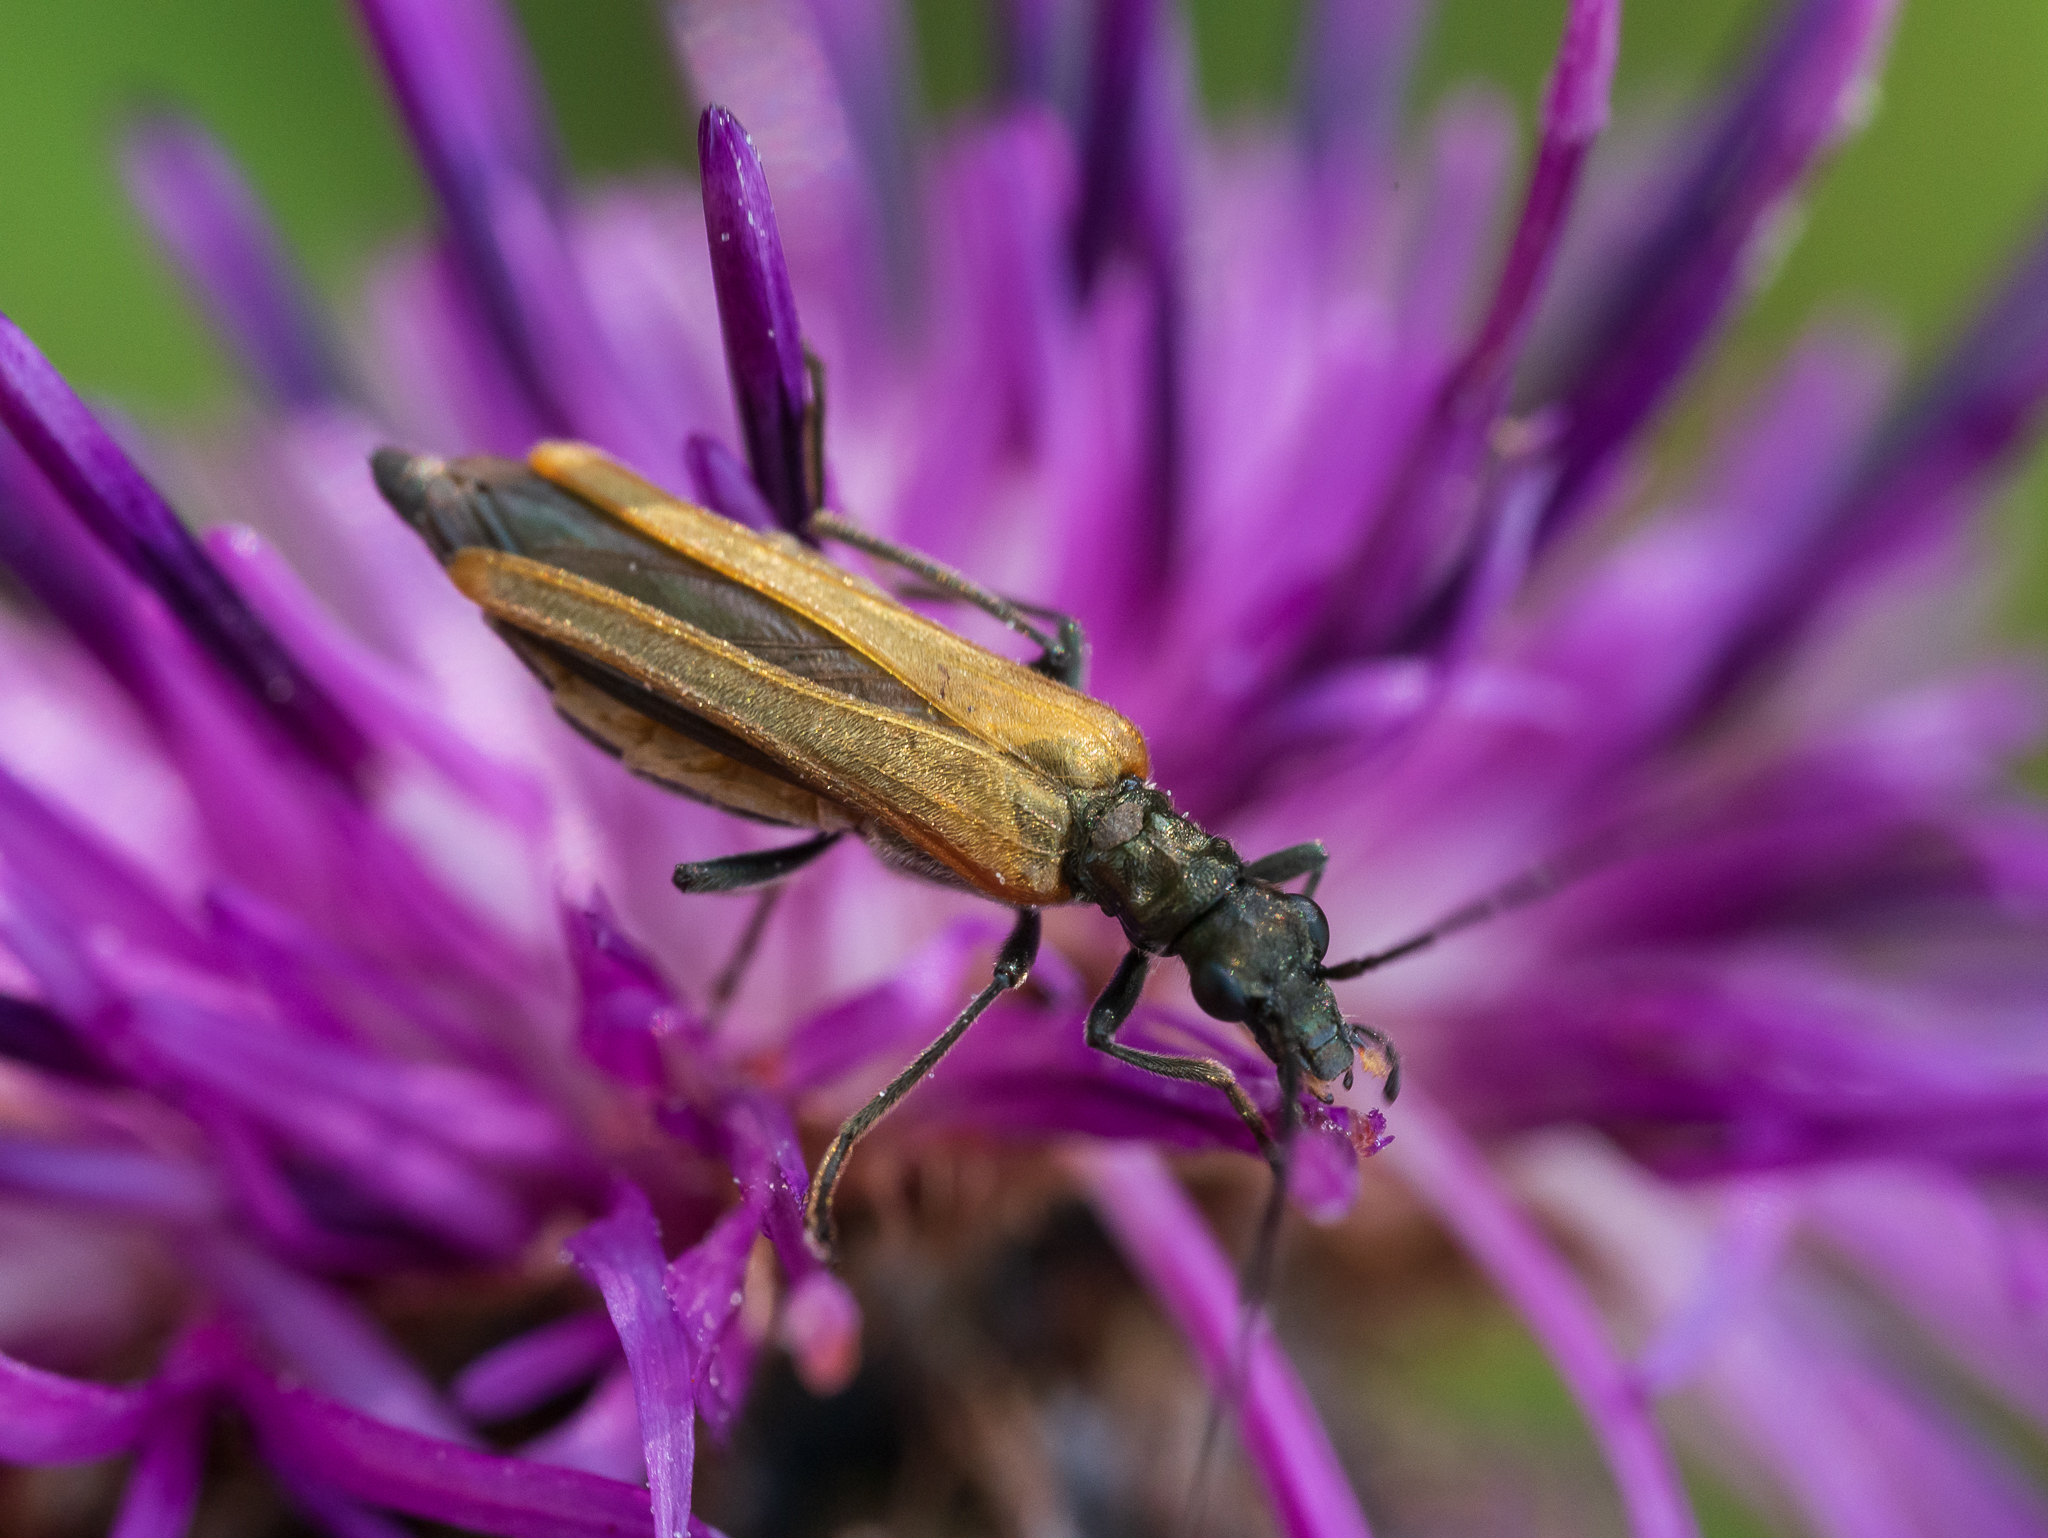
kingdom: Animalia
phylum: Arthropoda
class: Insecta
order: Coleoptera
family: Oedemeridae
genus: Oedemera
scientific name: Oedemera femorata
